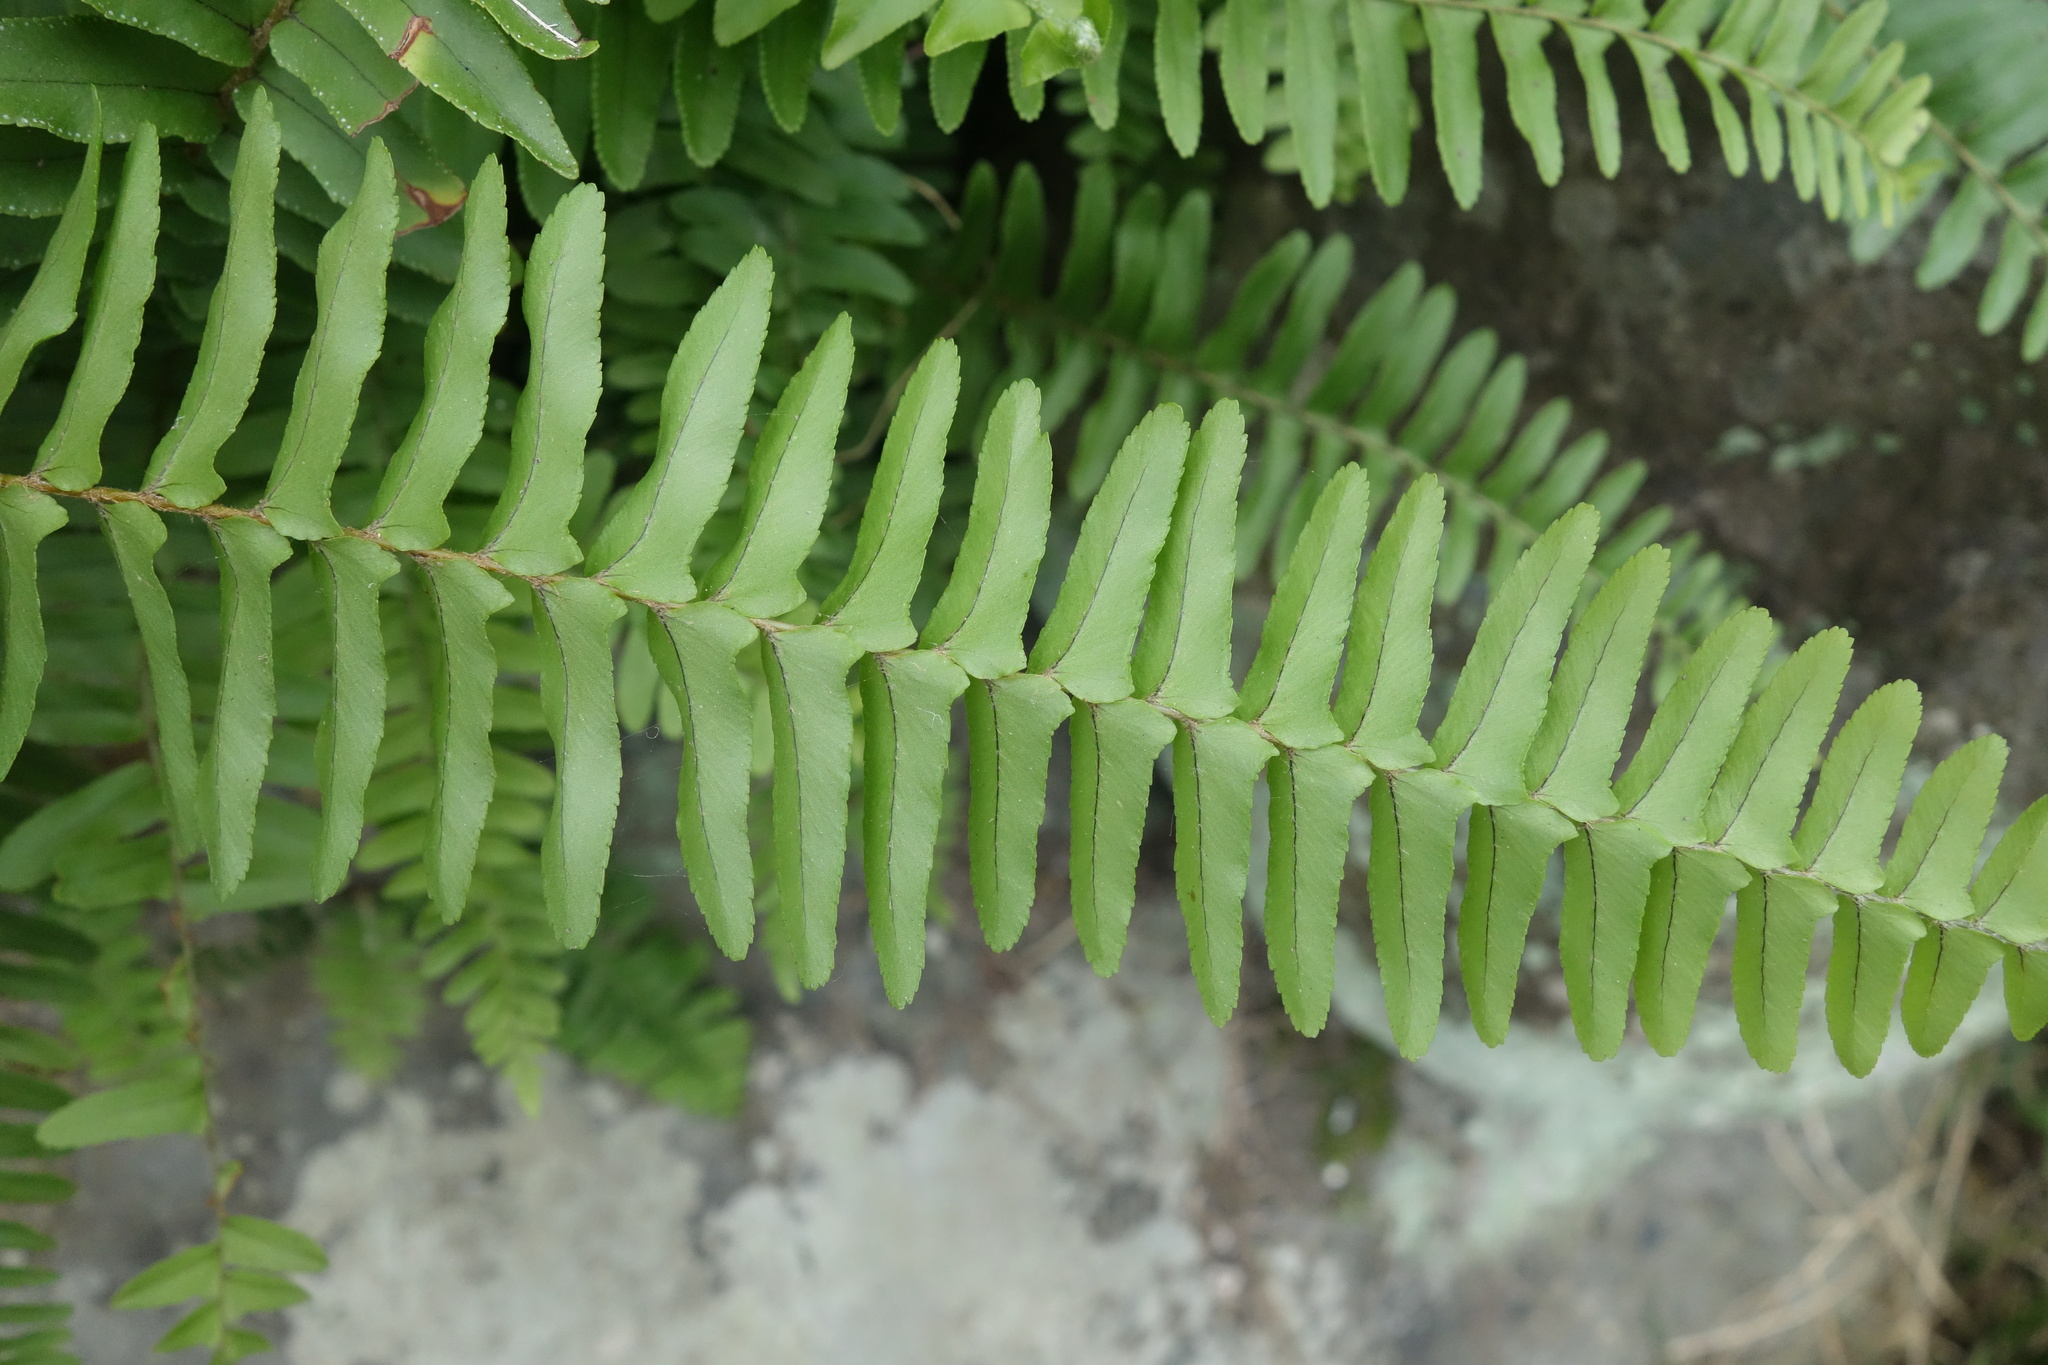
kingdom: Plantae
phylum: Tracheophyta
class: Polypodiopsida
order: Polypodiales
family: Nephrolepidaceae
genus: Nephrolepis
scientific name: Nephrolepis cordifolia
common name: Narrow swordfern
